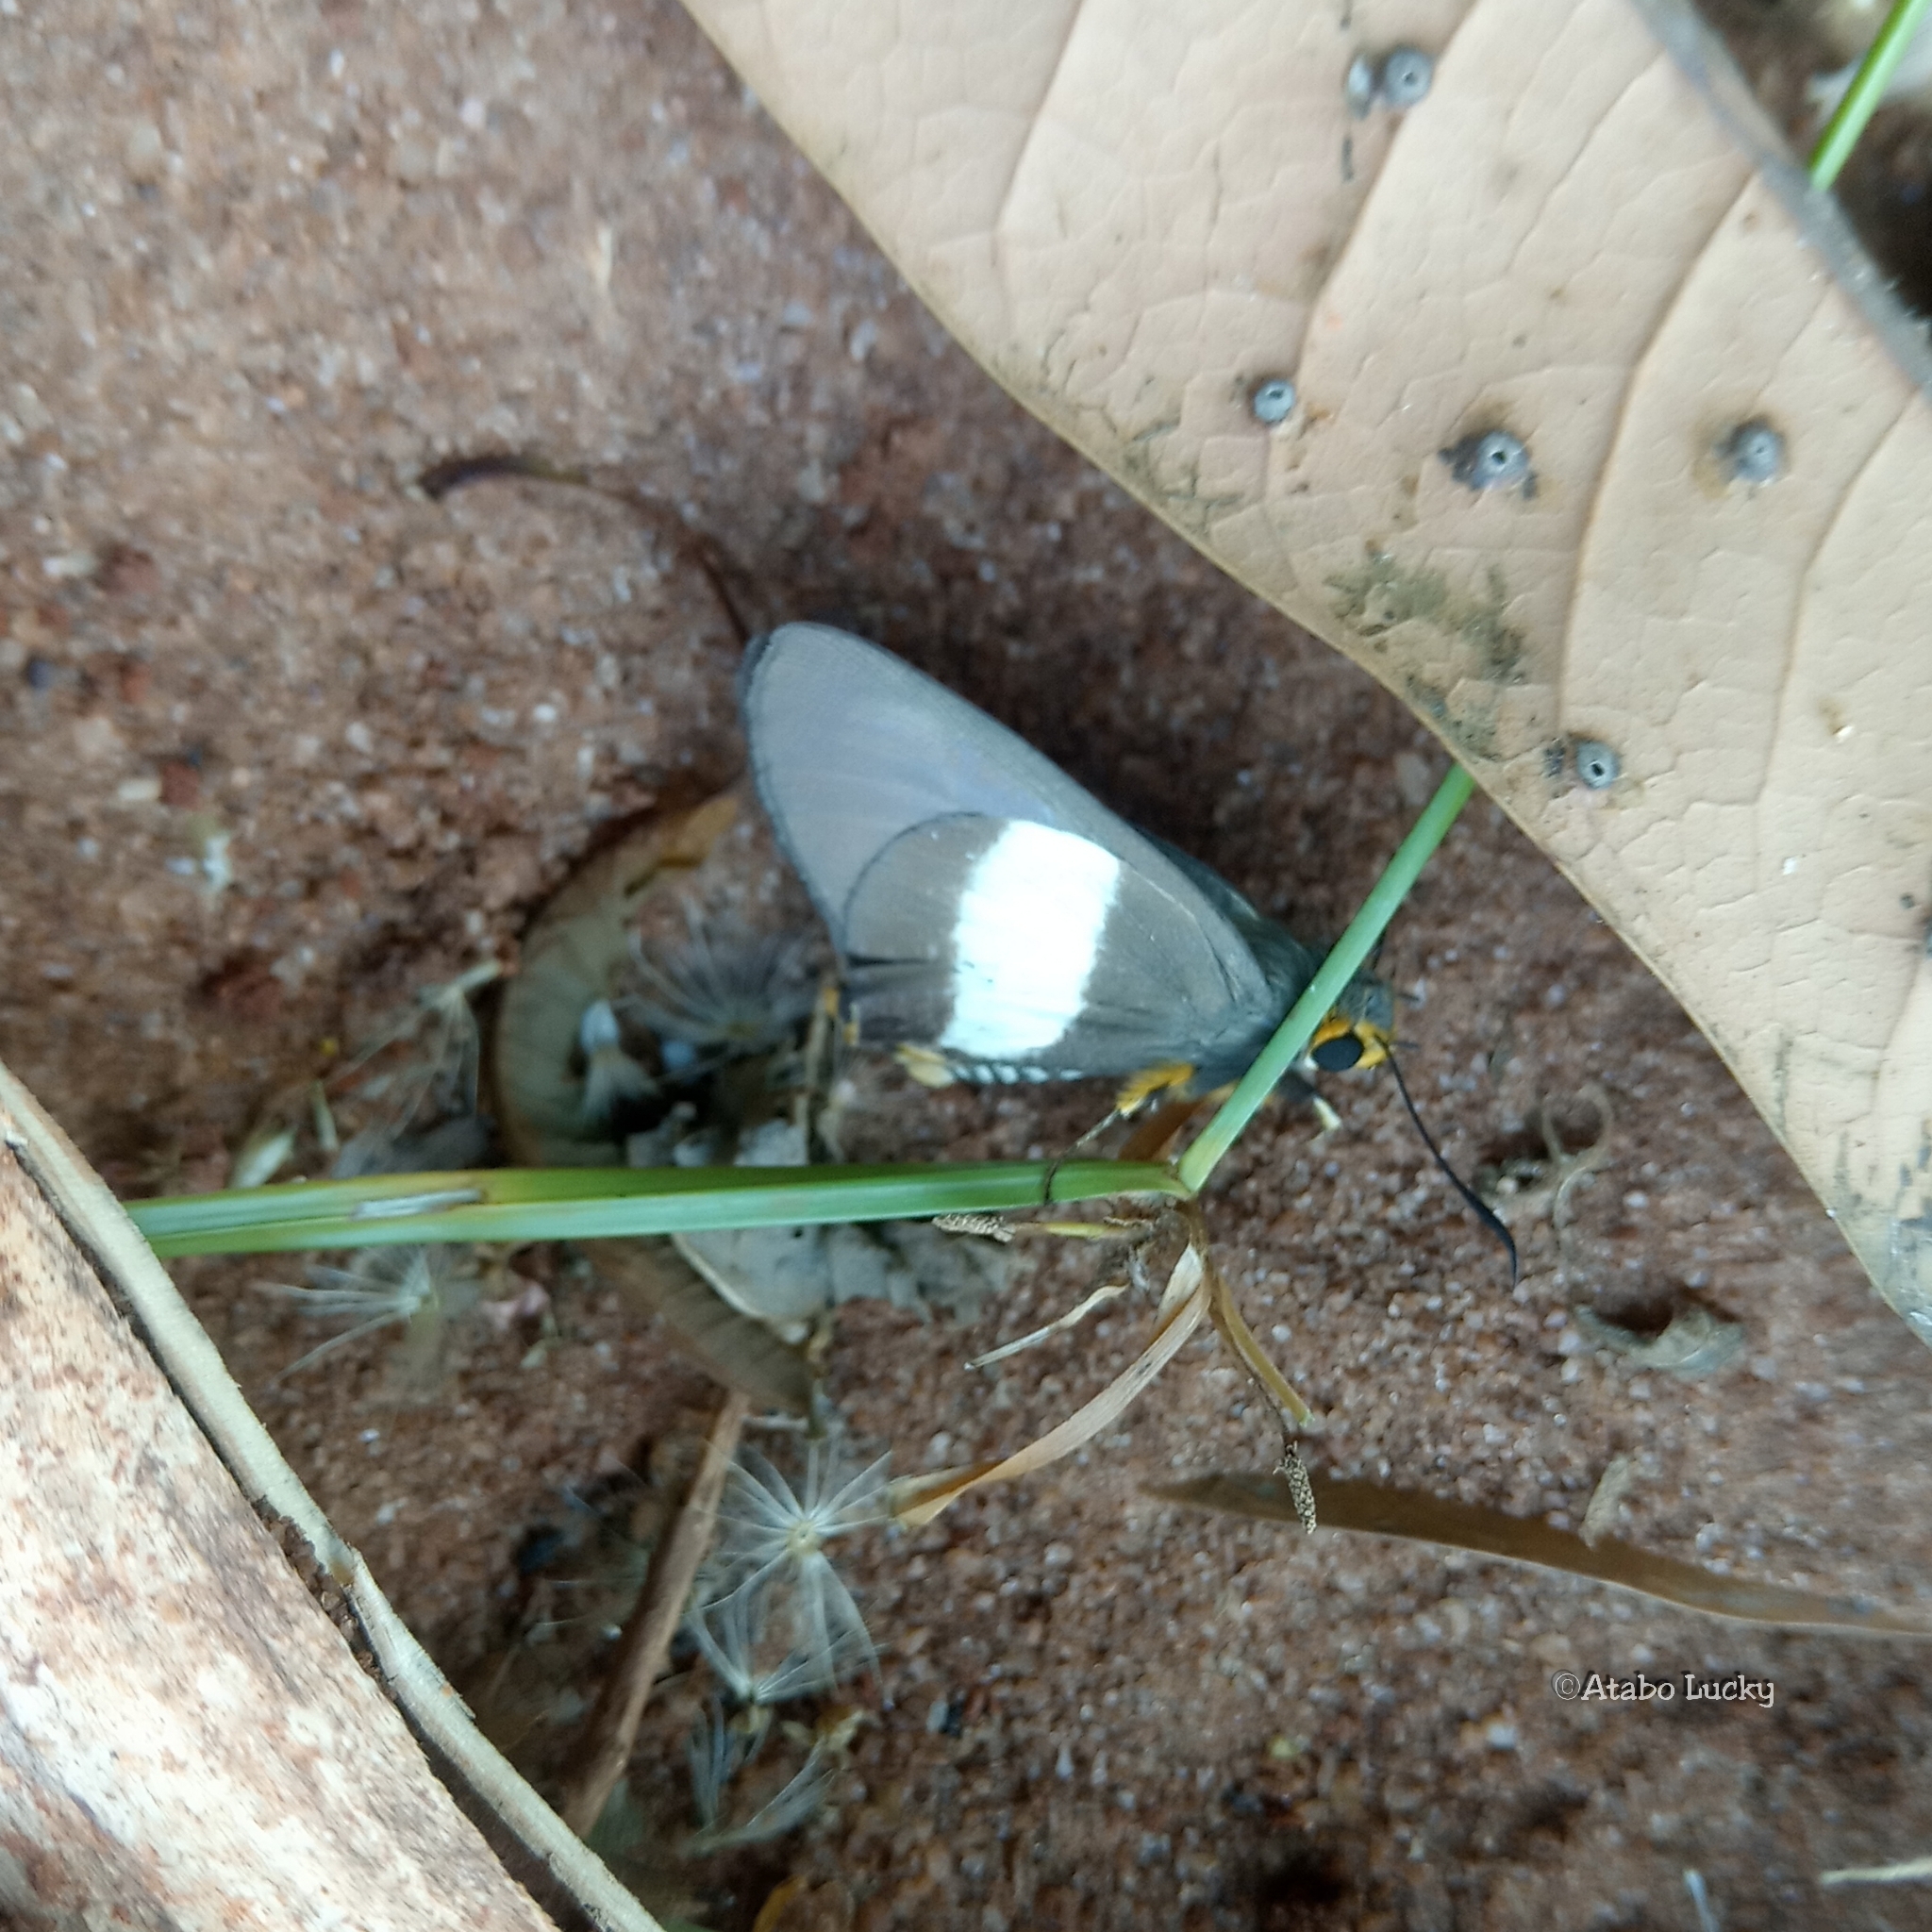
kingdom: Animalia
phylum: Arthropoda
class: Insecta
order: Lepidoptera
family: Hesperiidae
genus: Coeliades
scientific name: Coeliades forestan
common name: Striped policeman
